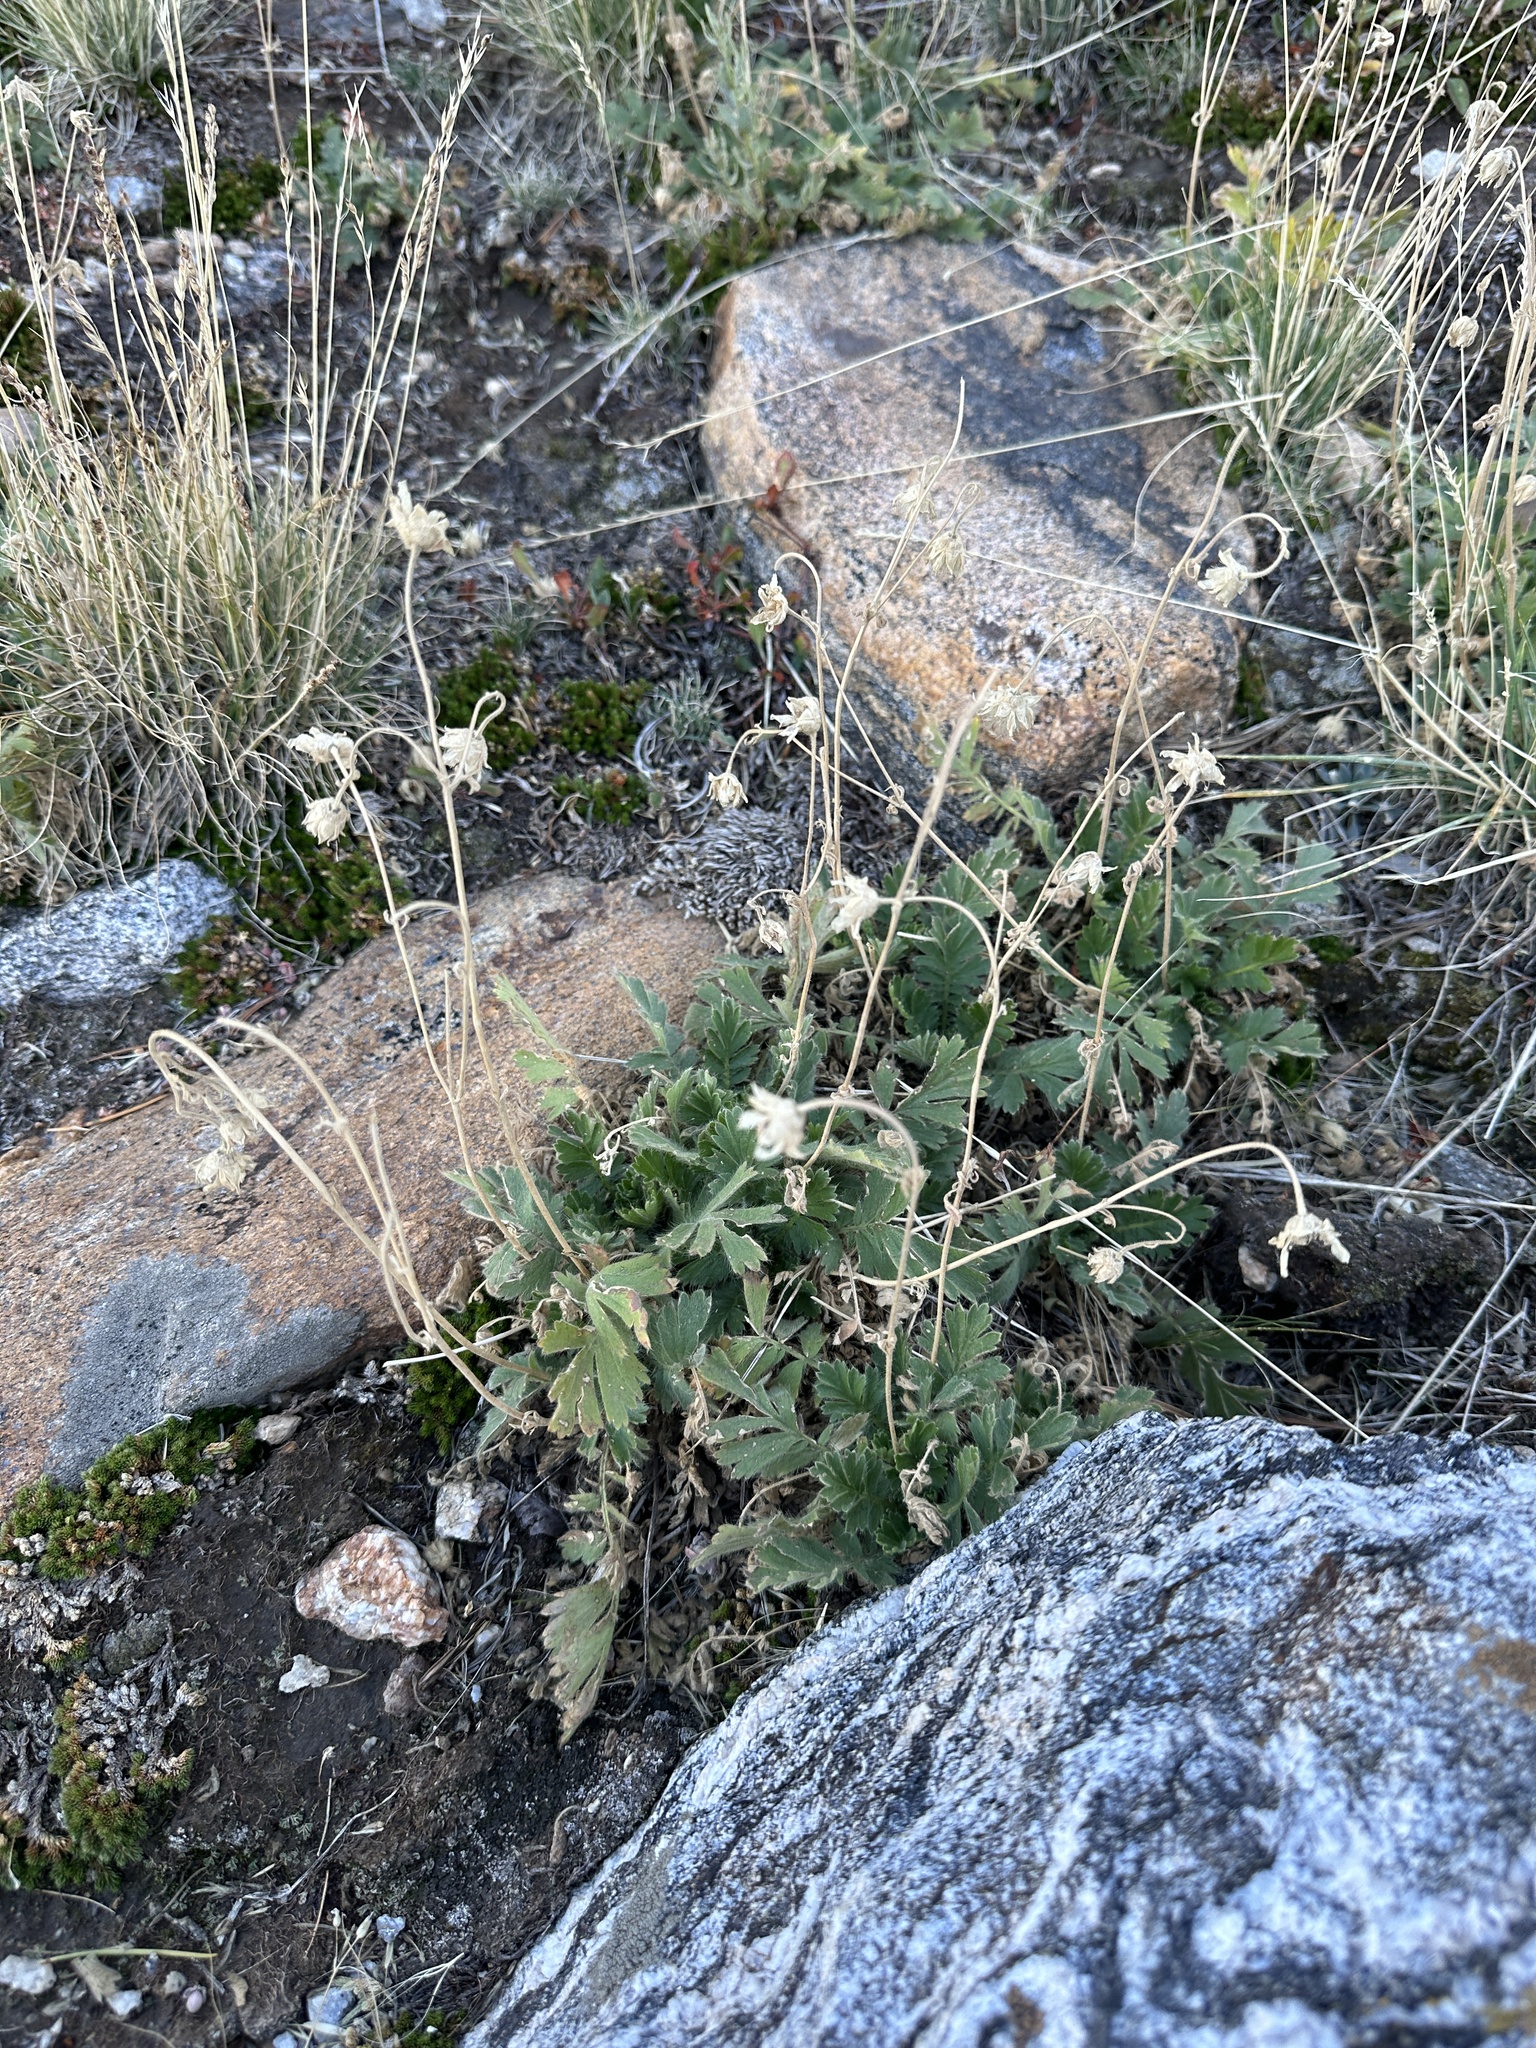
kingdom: Plantae
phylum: Tracheophyta
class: Magnoliopsida
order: Rosales
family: Rosaceae
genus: Geum
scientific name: Geum triflorum
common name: Old man's whiskers
